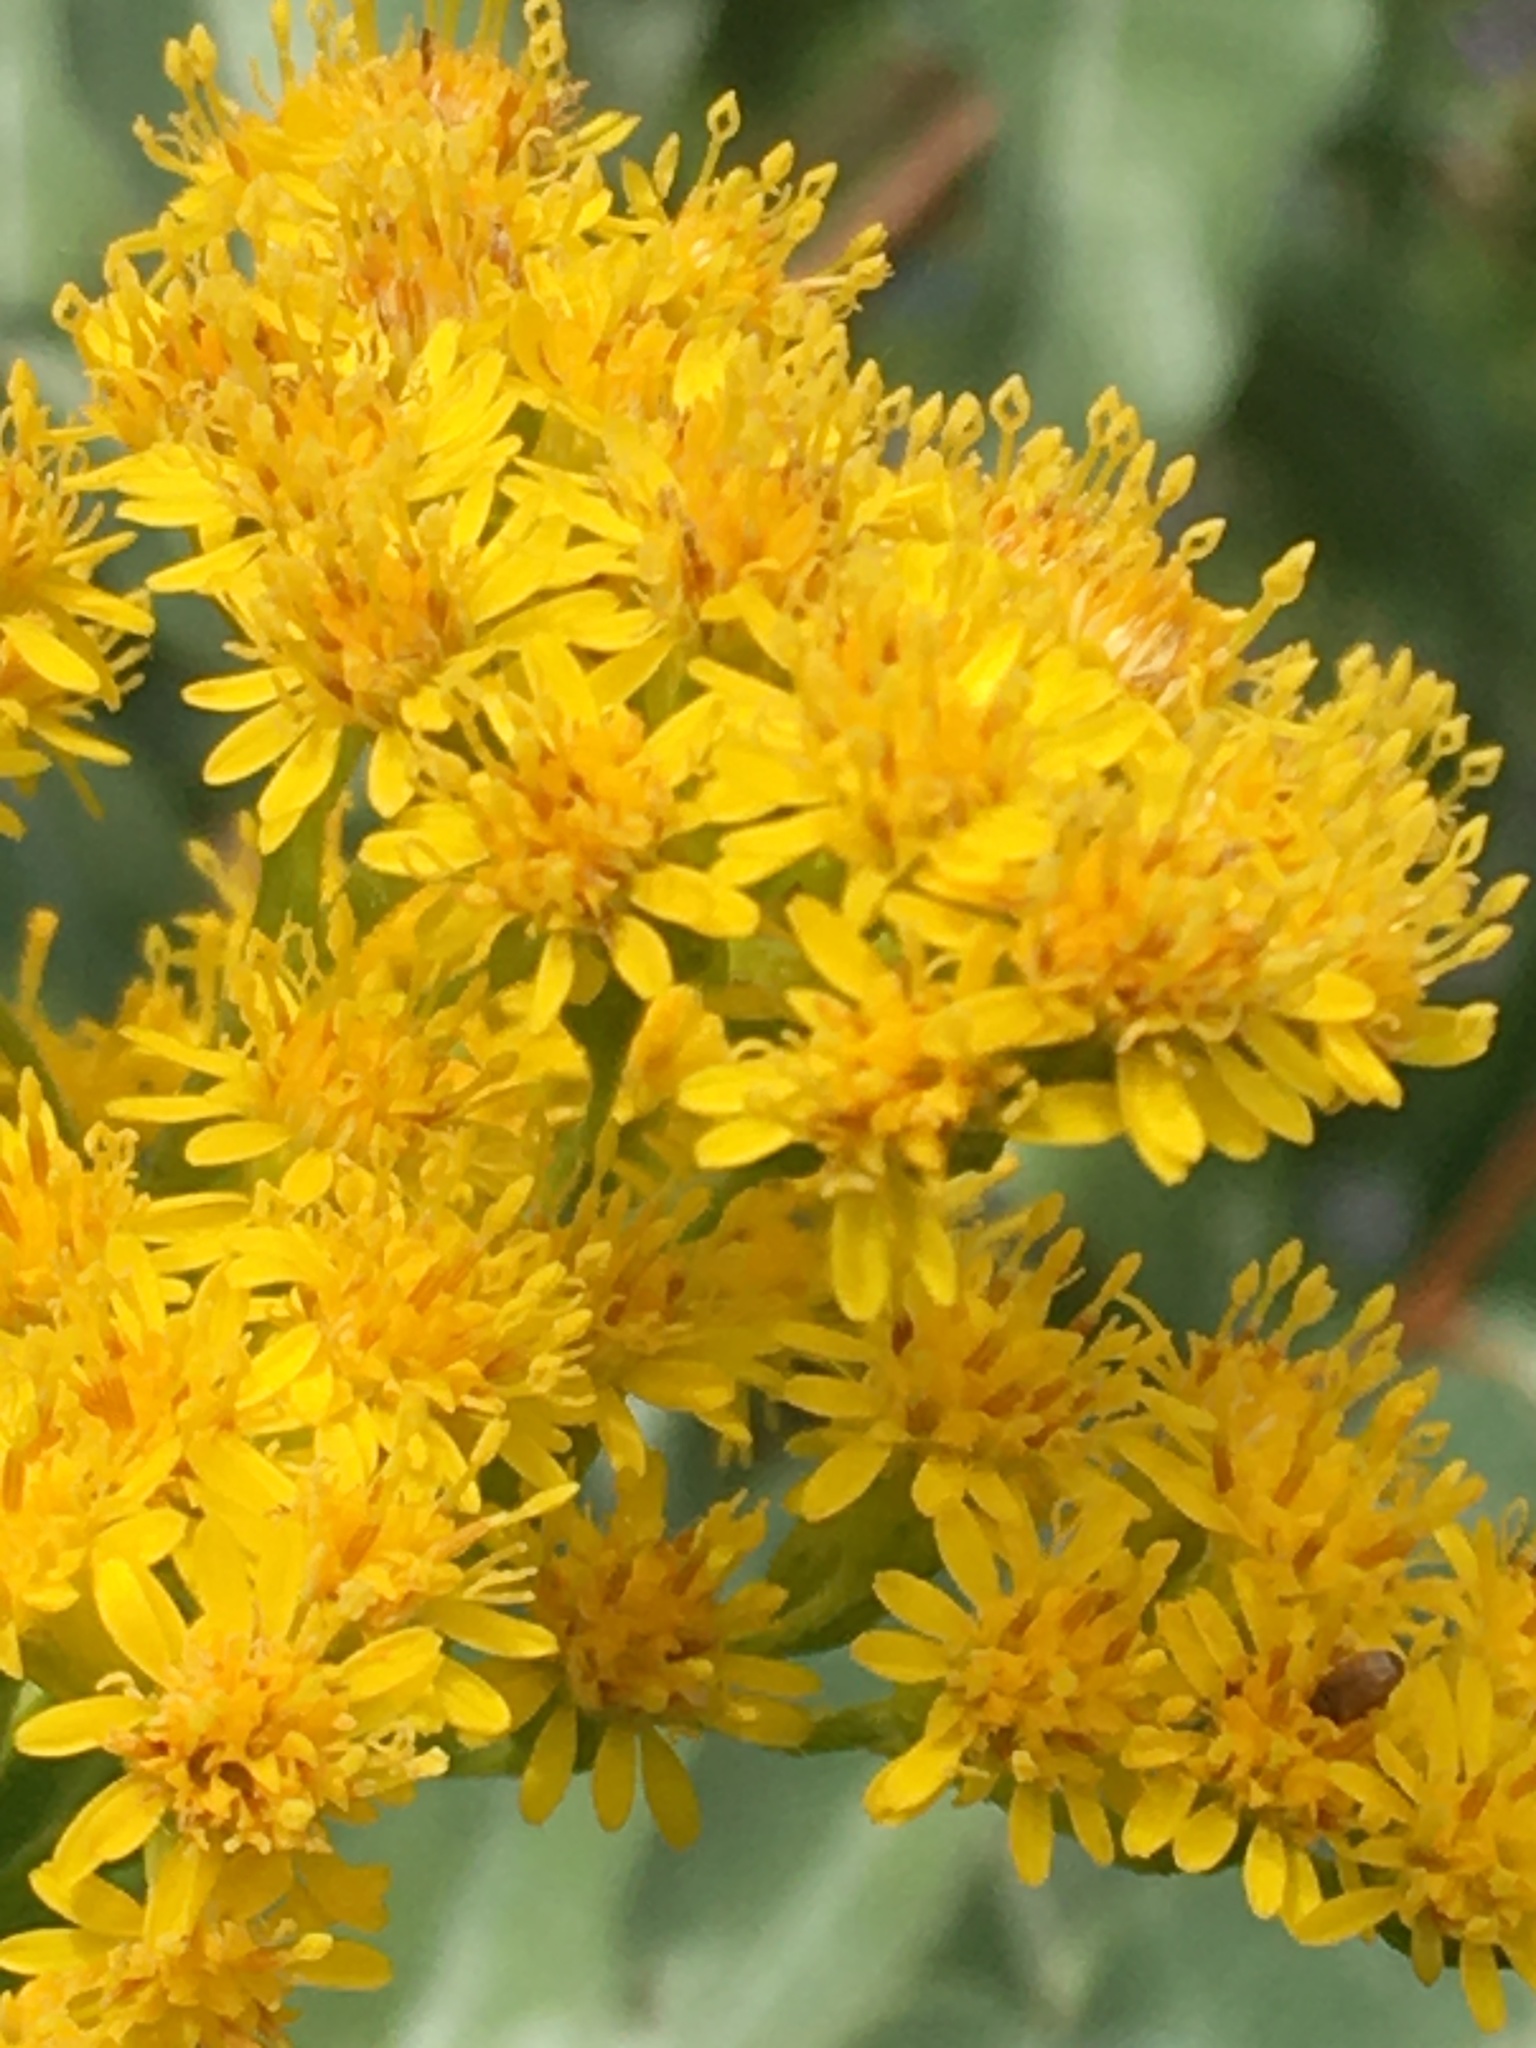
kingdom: Plantae
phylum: Tracheophyta
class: Magnoliopsida
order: Asterales
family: Asteraceae
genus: Solidago
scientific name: Solidago gigantea
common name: Giant goldenrod
